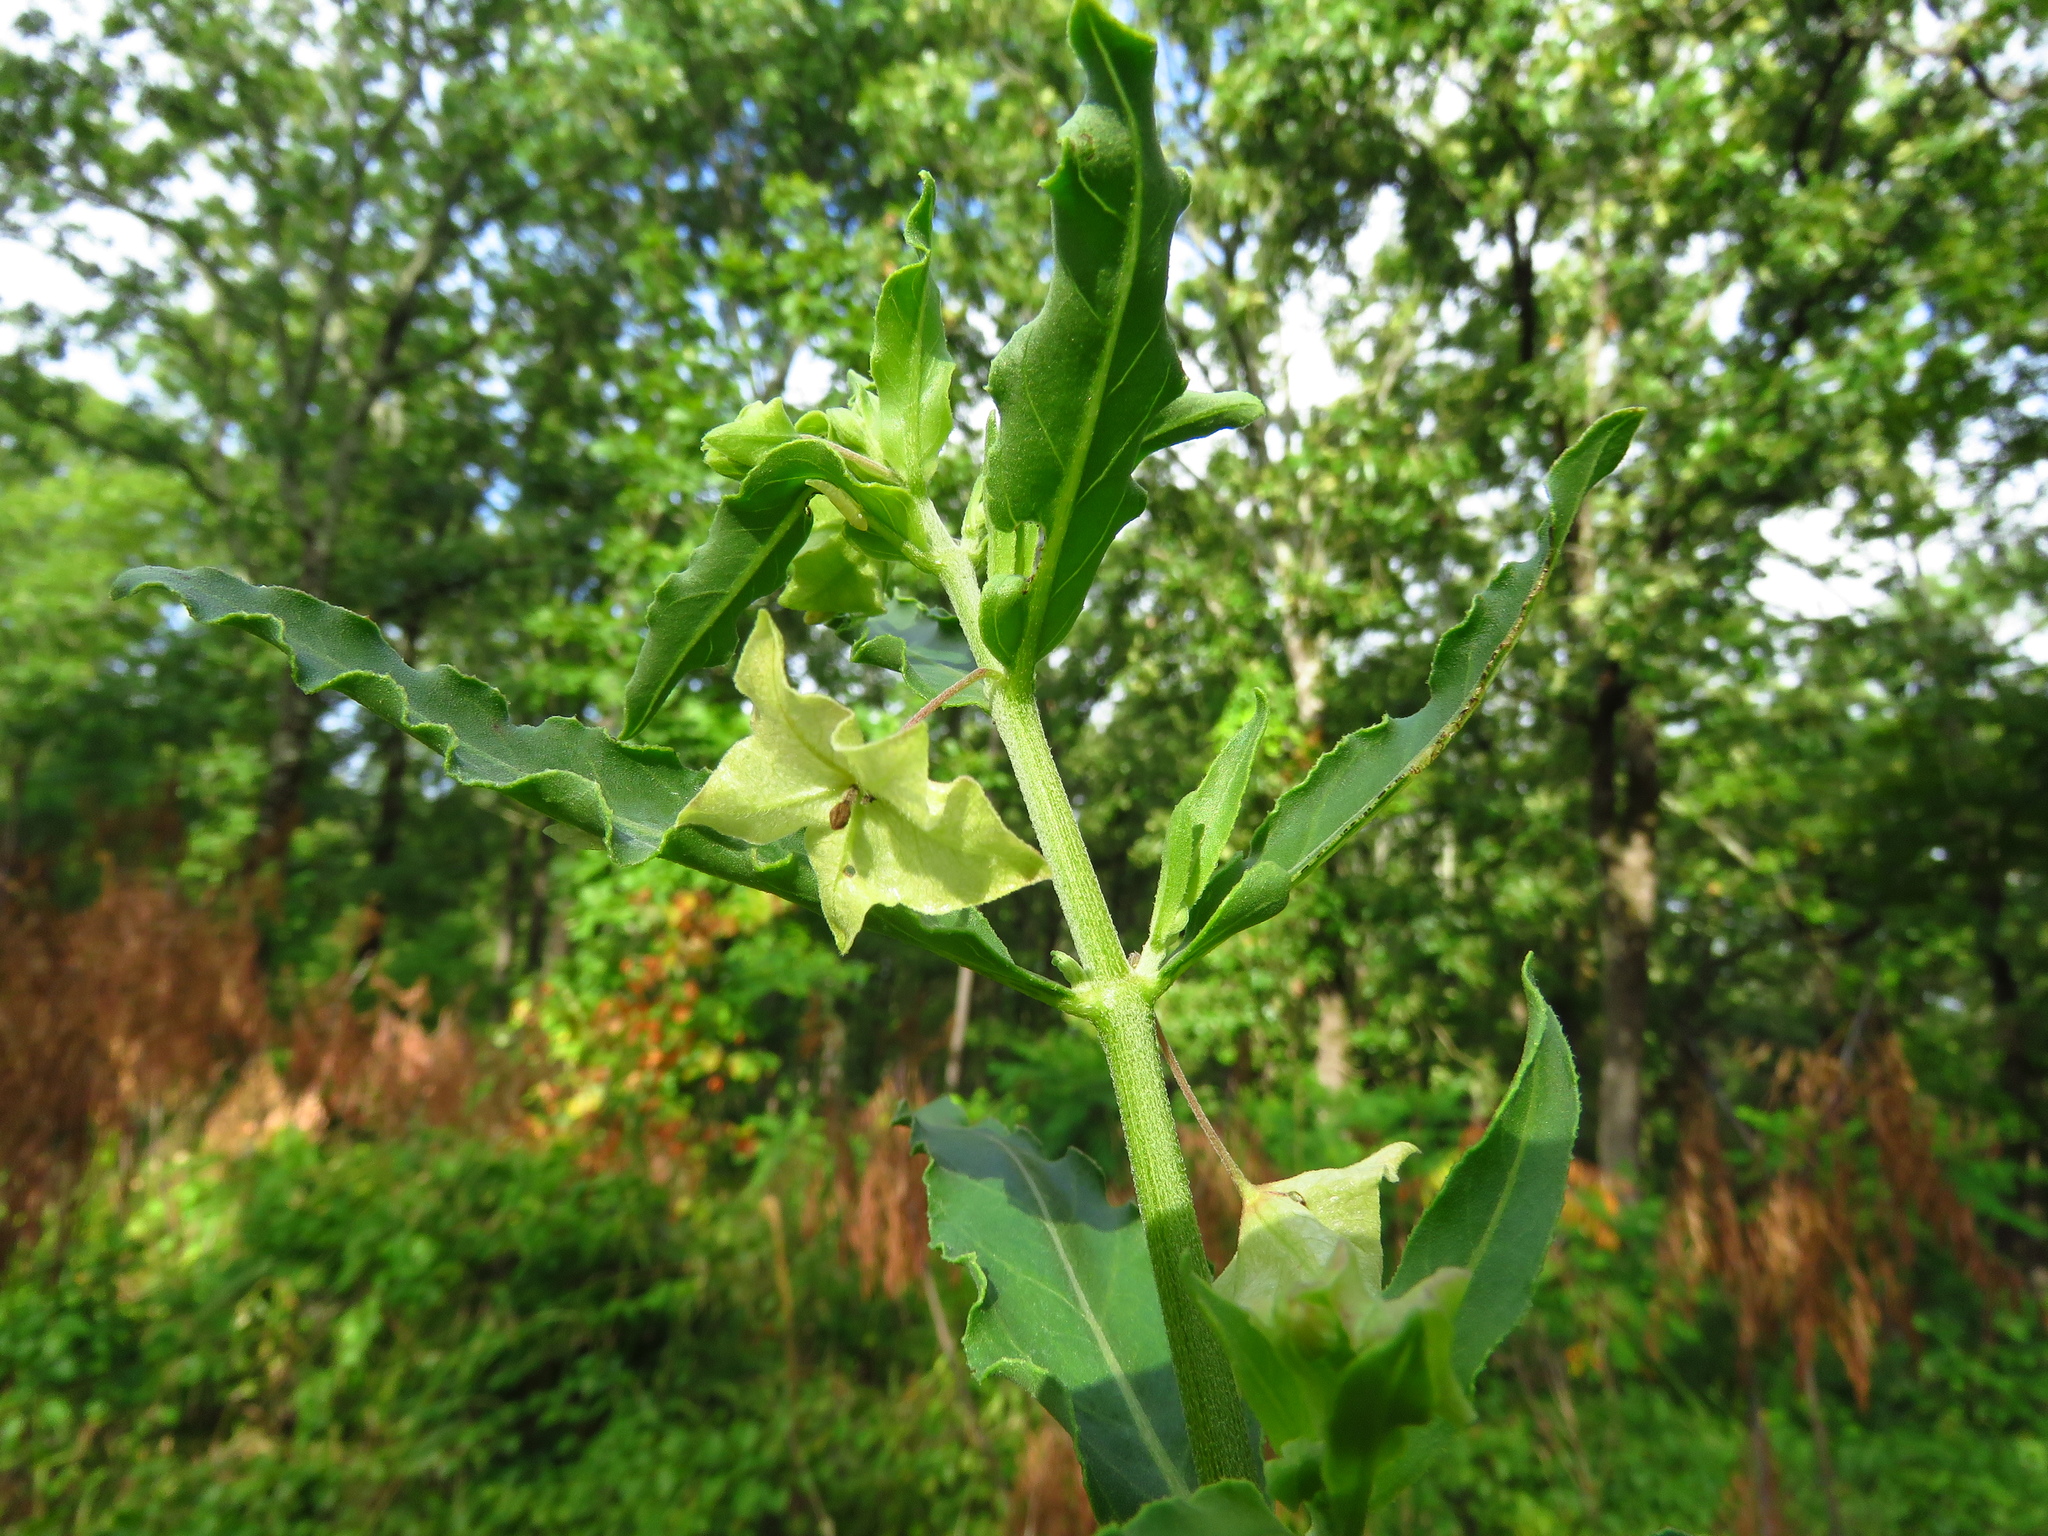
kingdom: Plantae
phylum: Tracheophyta
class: Magnoliopsida
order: Caryophyllales
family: Nyctaginaceae
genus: Mirabilis
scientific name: Mirabilis albida
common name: Hairy four-o'clock
